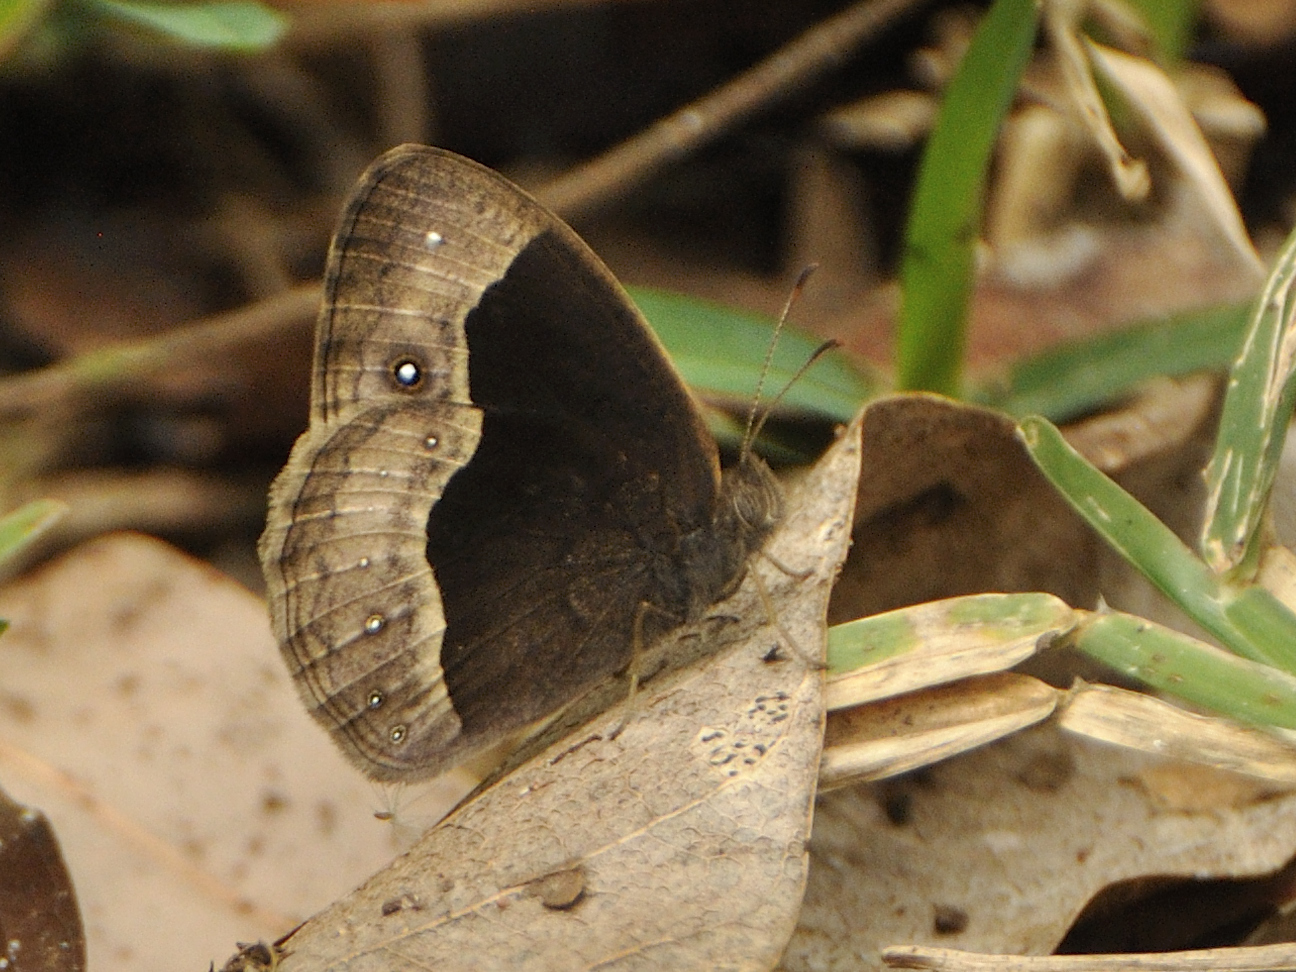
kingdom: Animalia
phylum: Arthropoda
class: Insecta
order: Lepidoptera
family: Nymphalidae
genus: Bicyclus
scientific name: Bicyclus campina
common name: Chirinda bush brown
